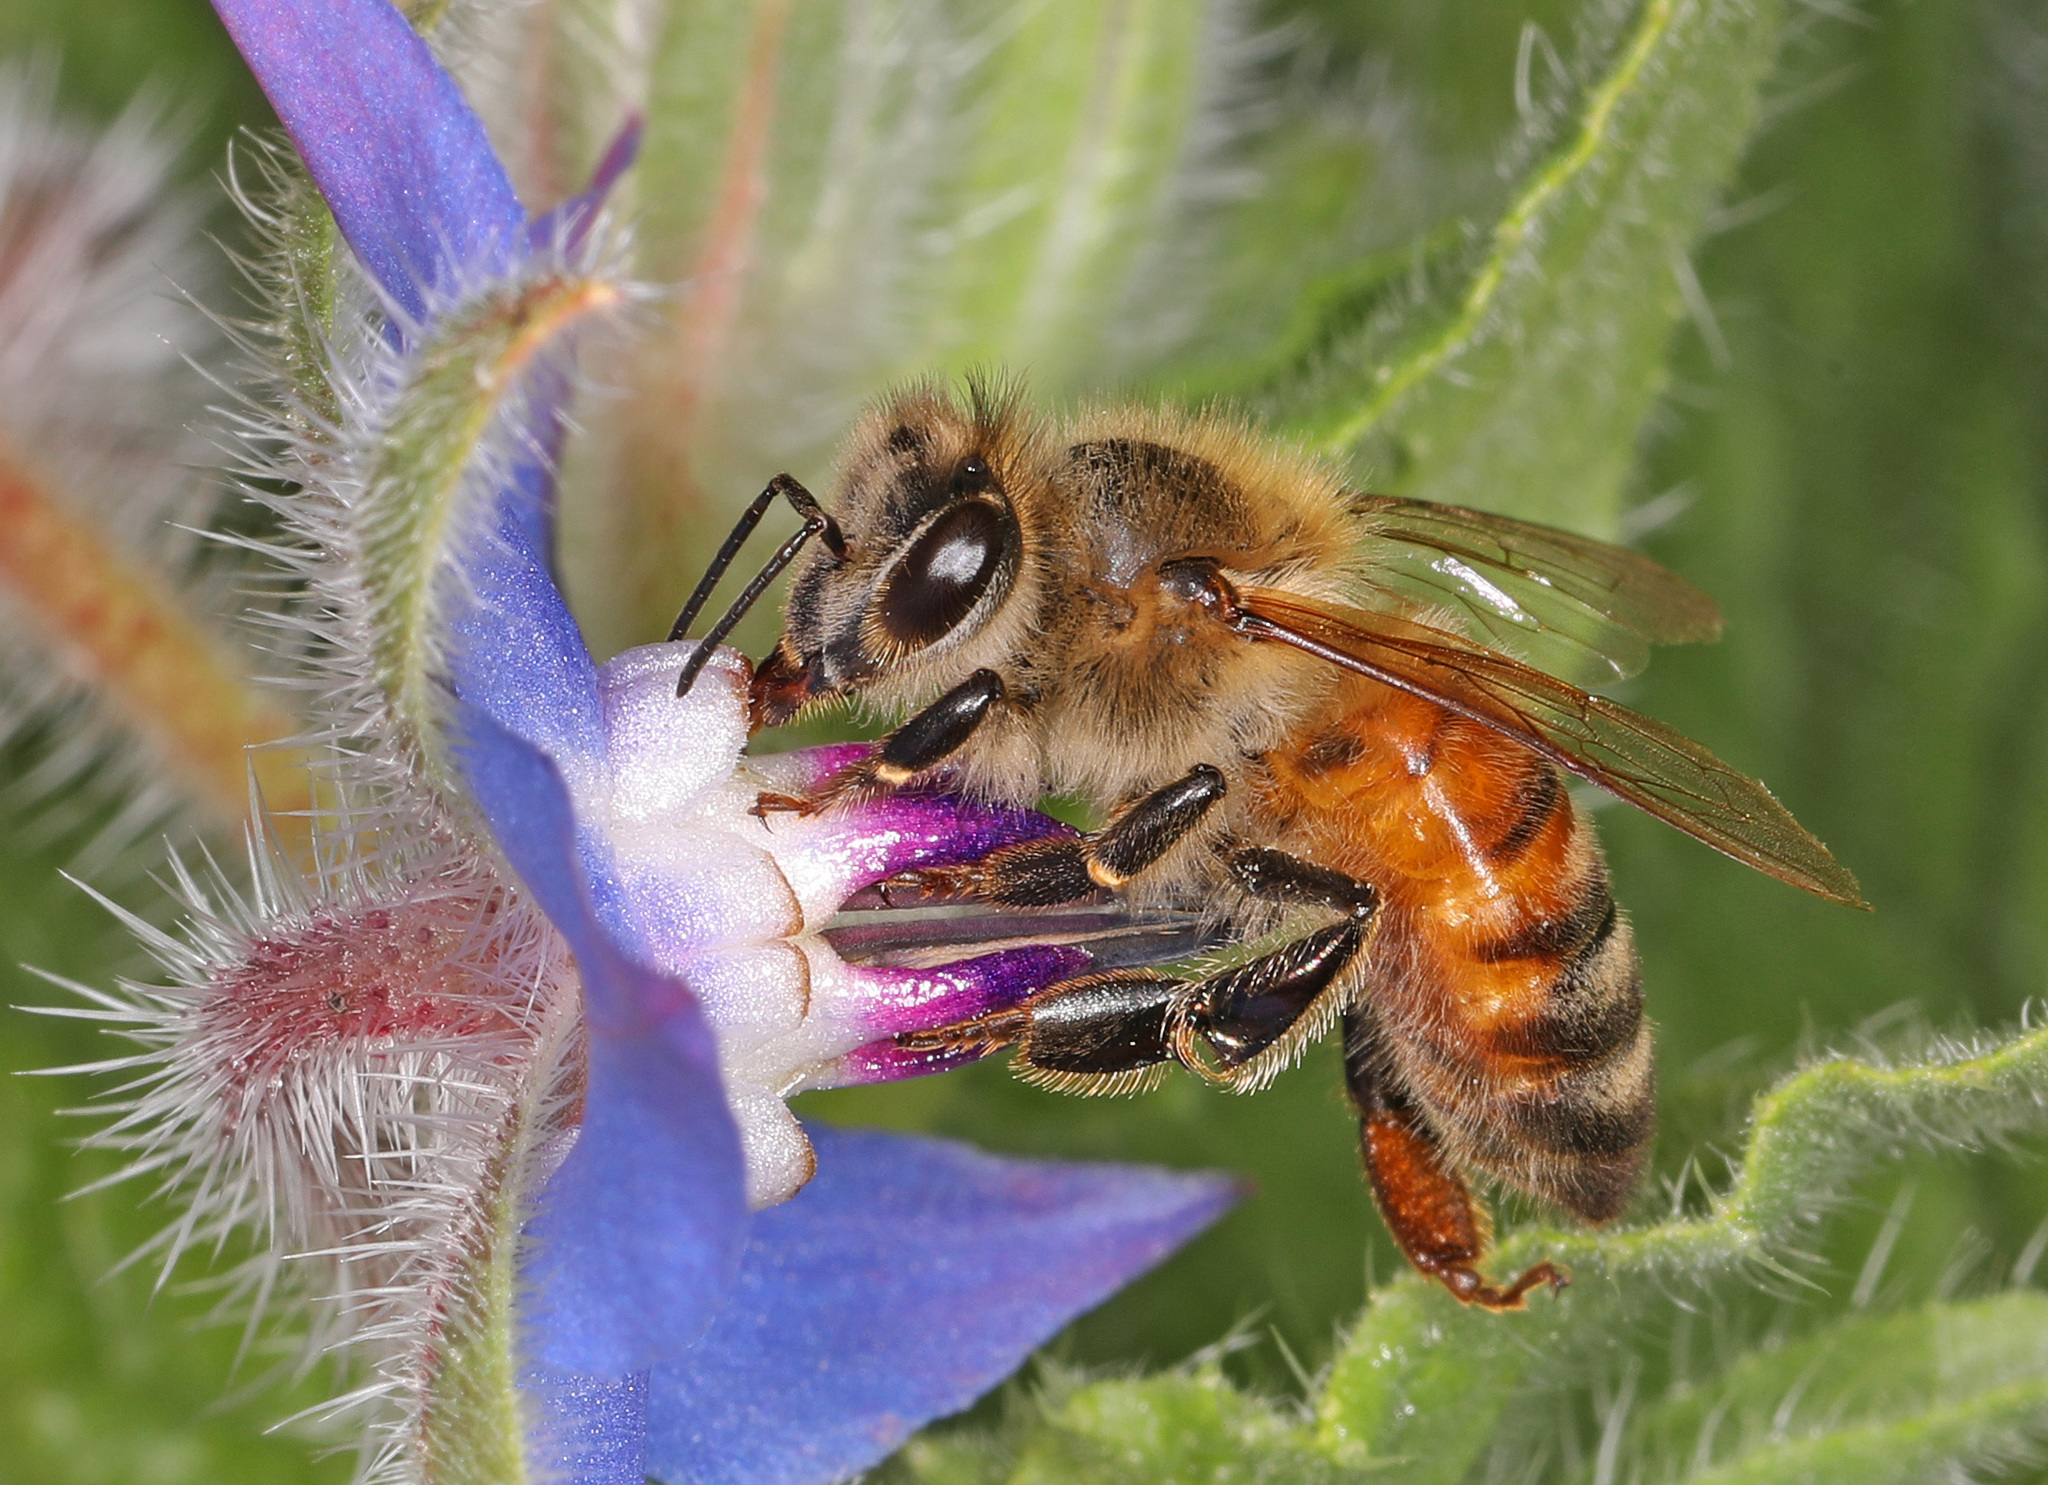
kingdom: Animalia
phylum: Arthropoda
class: Insecta
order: Hymenoptera
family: Apidae
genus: Apis
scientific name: Apis mellifera
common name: Honey bee
